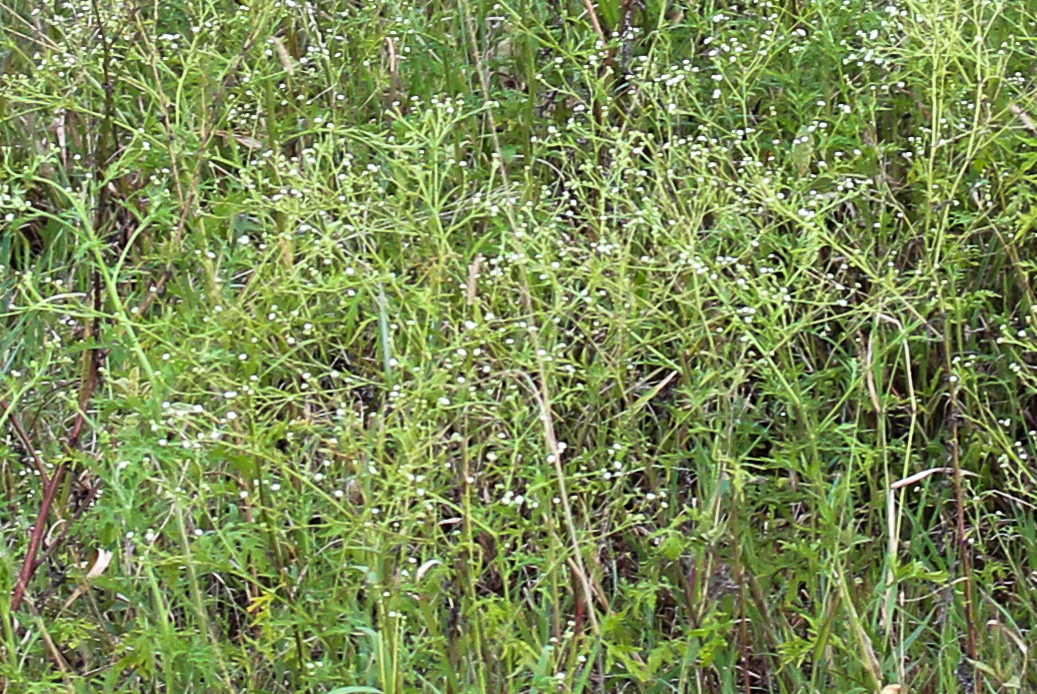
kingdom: Plantae
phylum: Tracheophyta
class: Magnoliopsida
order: Asterales
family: Asteraceae
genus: Parthenium
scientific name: Parthenium hysterophorus
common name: Santa maria feverfew
